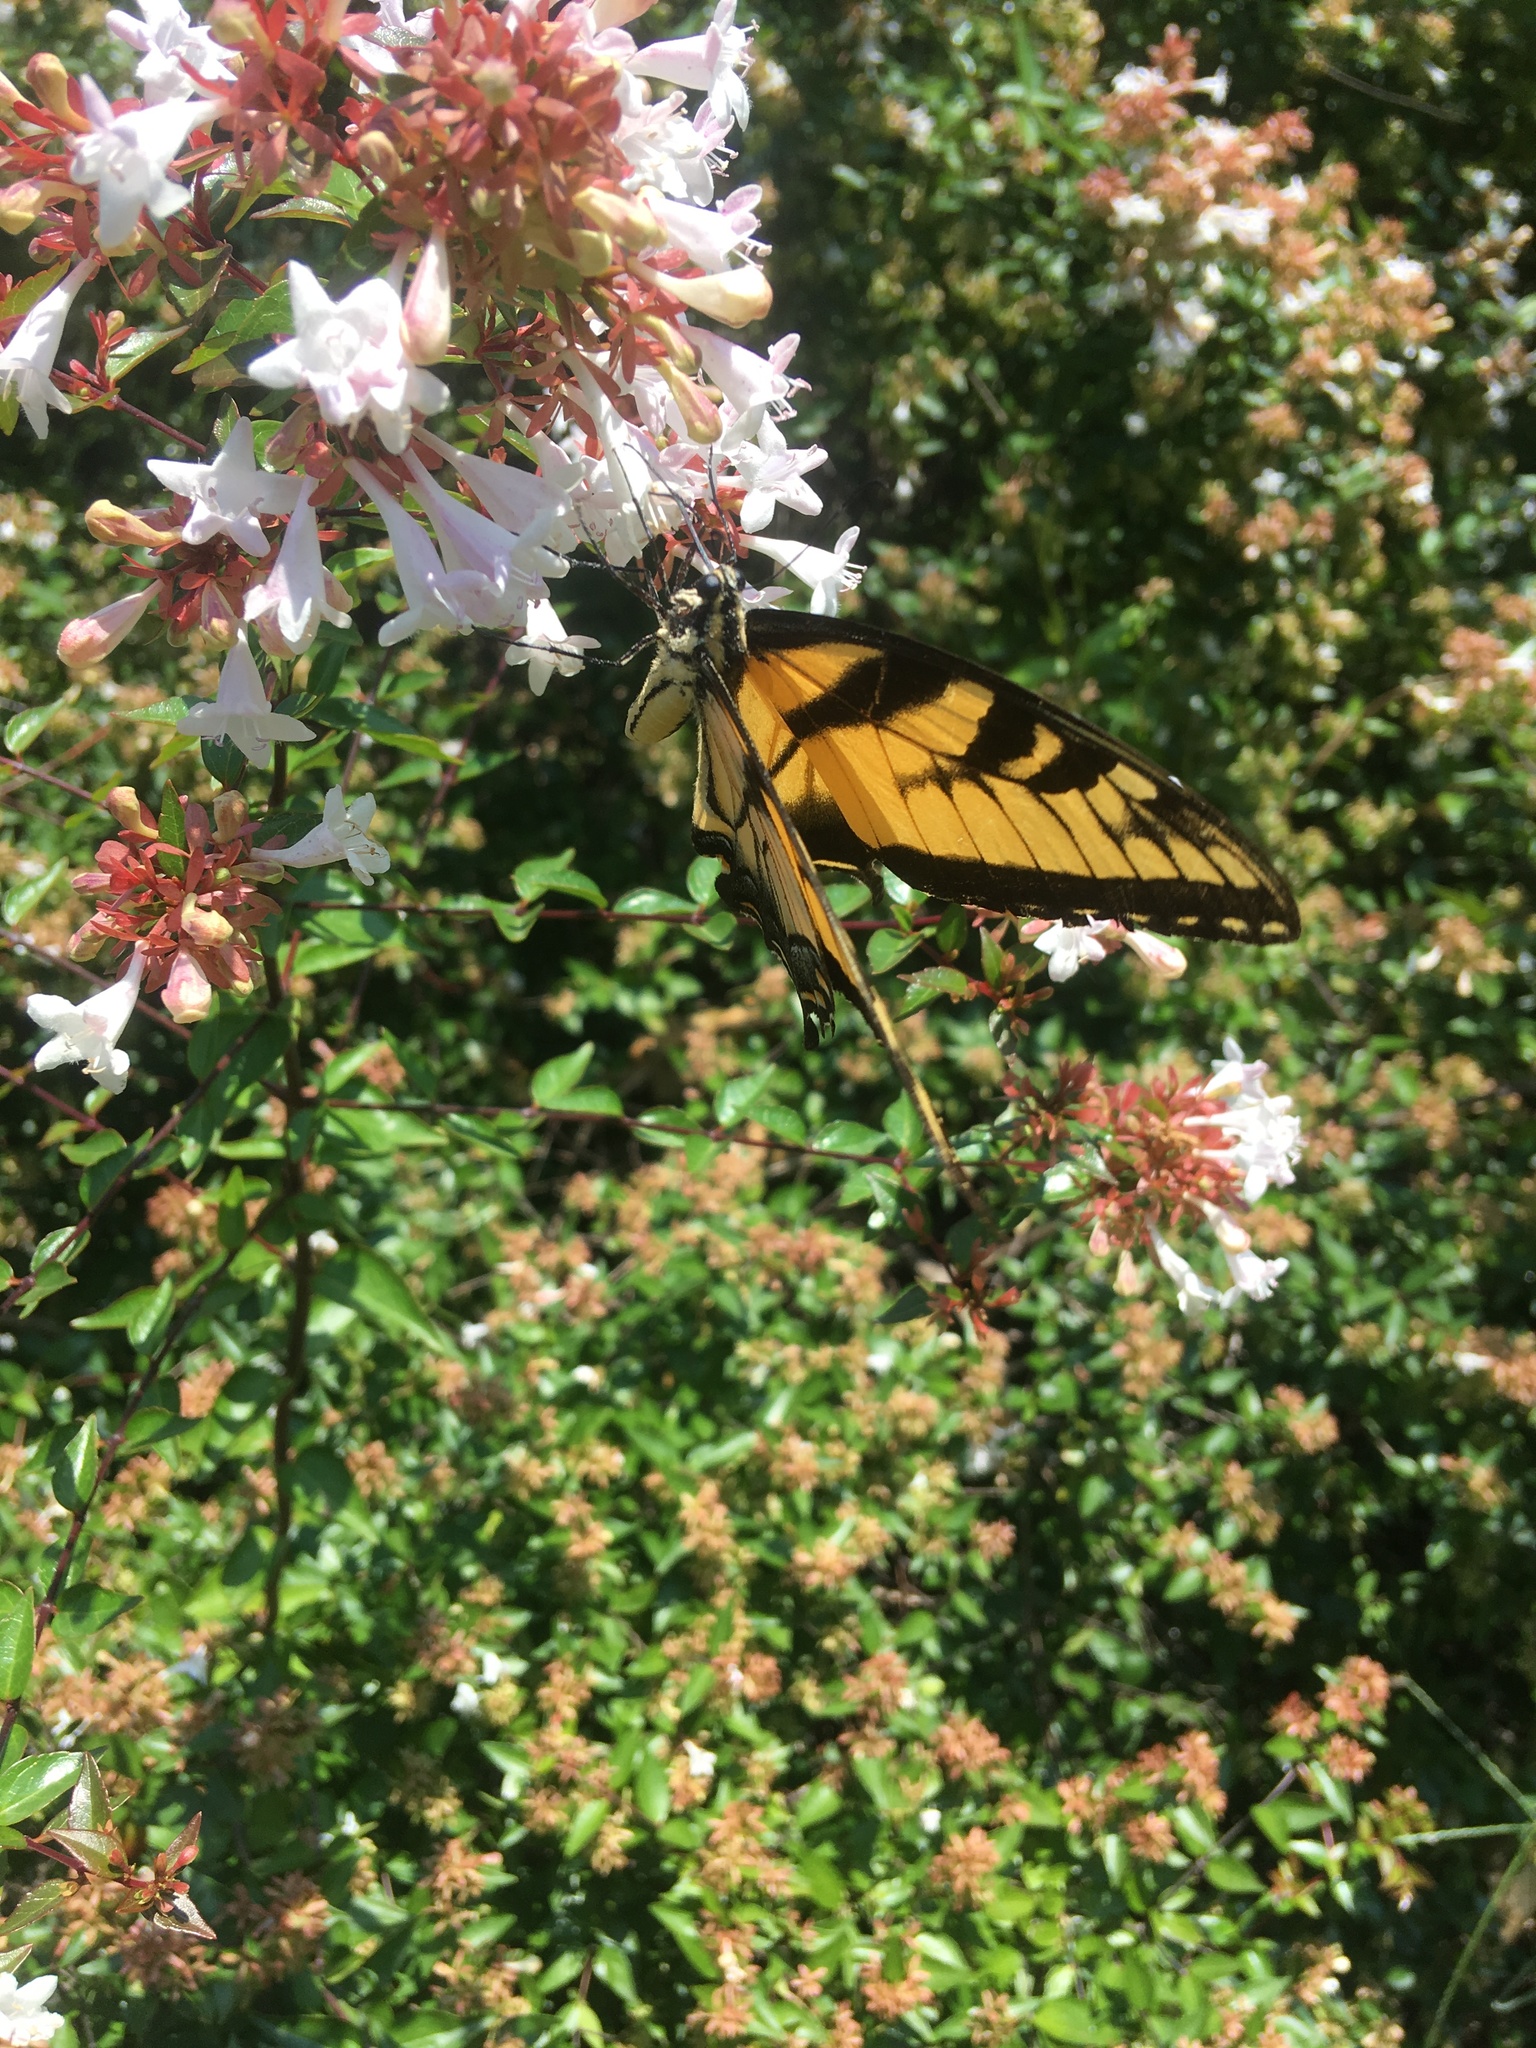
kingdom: Animalia
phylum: Arthropoda
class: Insecta
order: Lepidoptera
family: Papilionidae
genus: Papilio
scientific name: Papilio glaucus
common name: Tiger swallowtail
